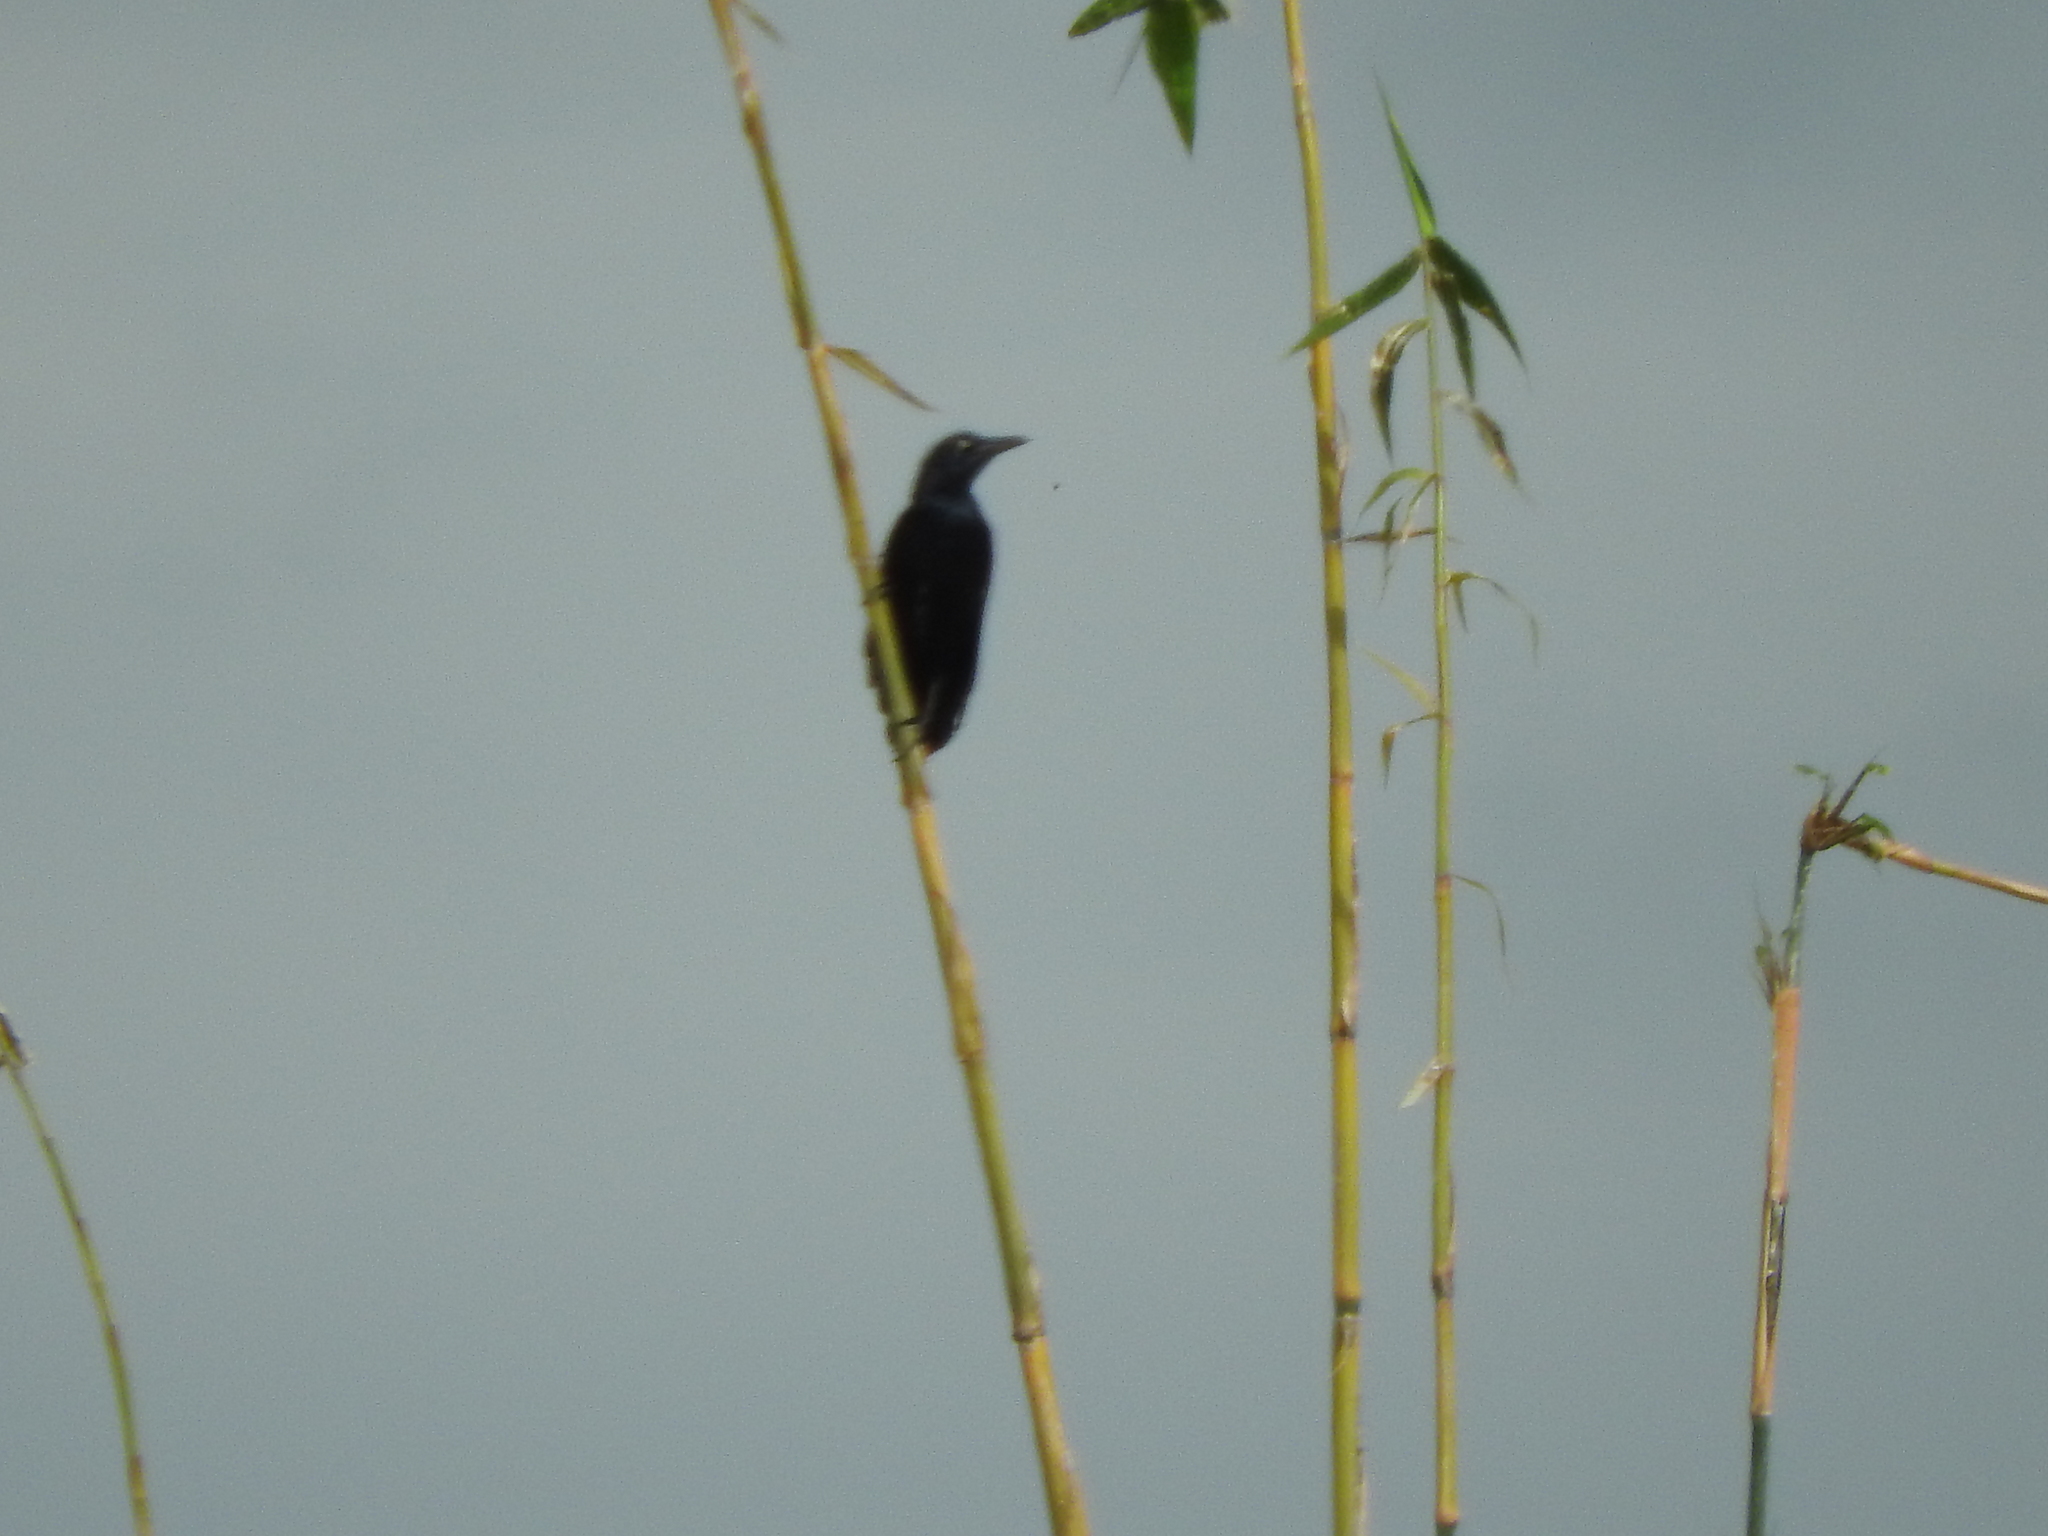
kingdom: Animalia
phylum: Chordata
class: Aves
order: Passeriformes
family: Icteridae
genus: Quiscalus
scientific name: Quiscalus mexicanus
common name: Great-tailed grackle
